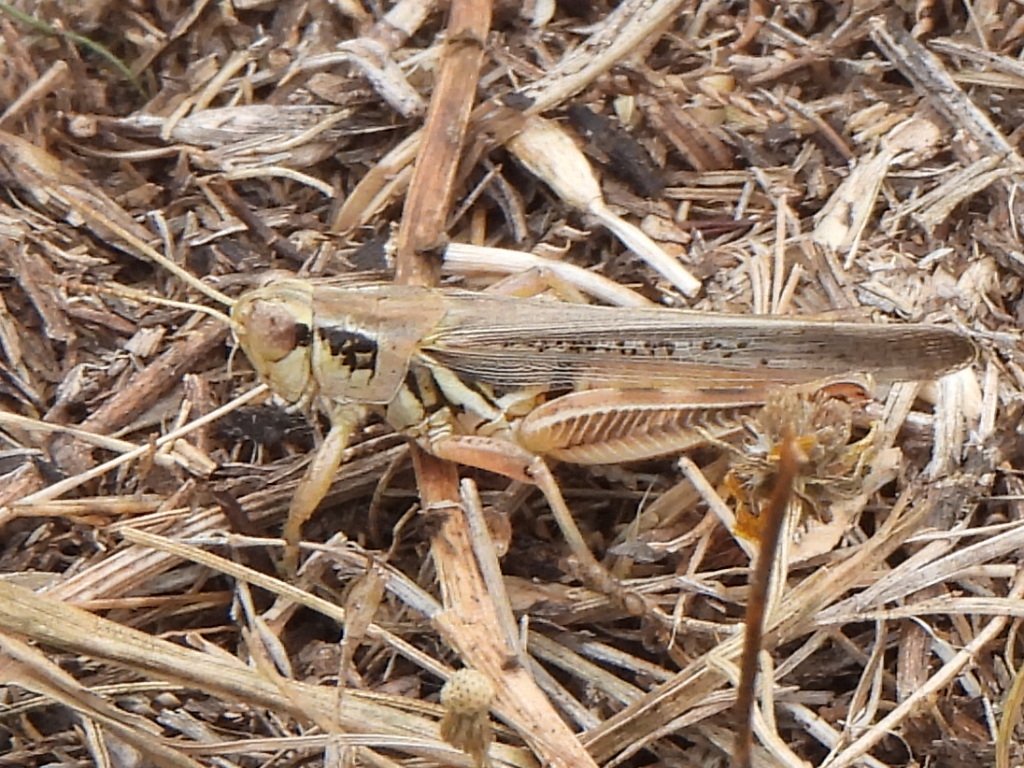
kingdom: Animalia
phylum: Arthropoda
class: Insecta
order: Orthoptera
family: Acrididae
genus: Melanoplus
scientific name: Melanoplus femurrubrum
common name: Red-legged grasshopper
